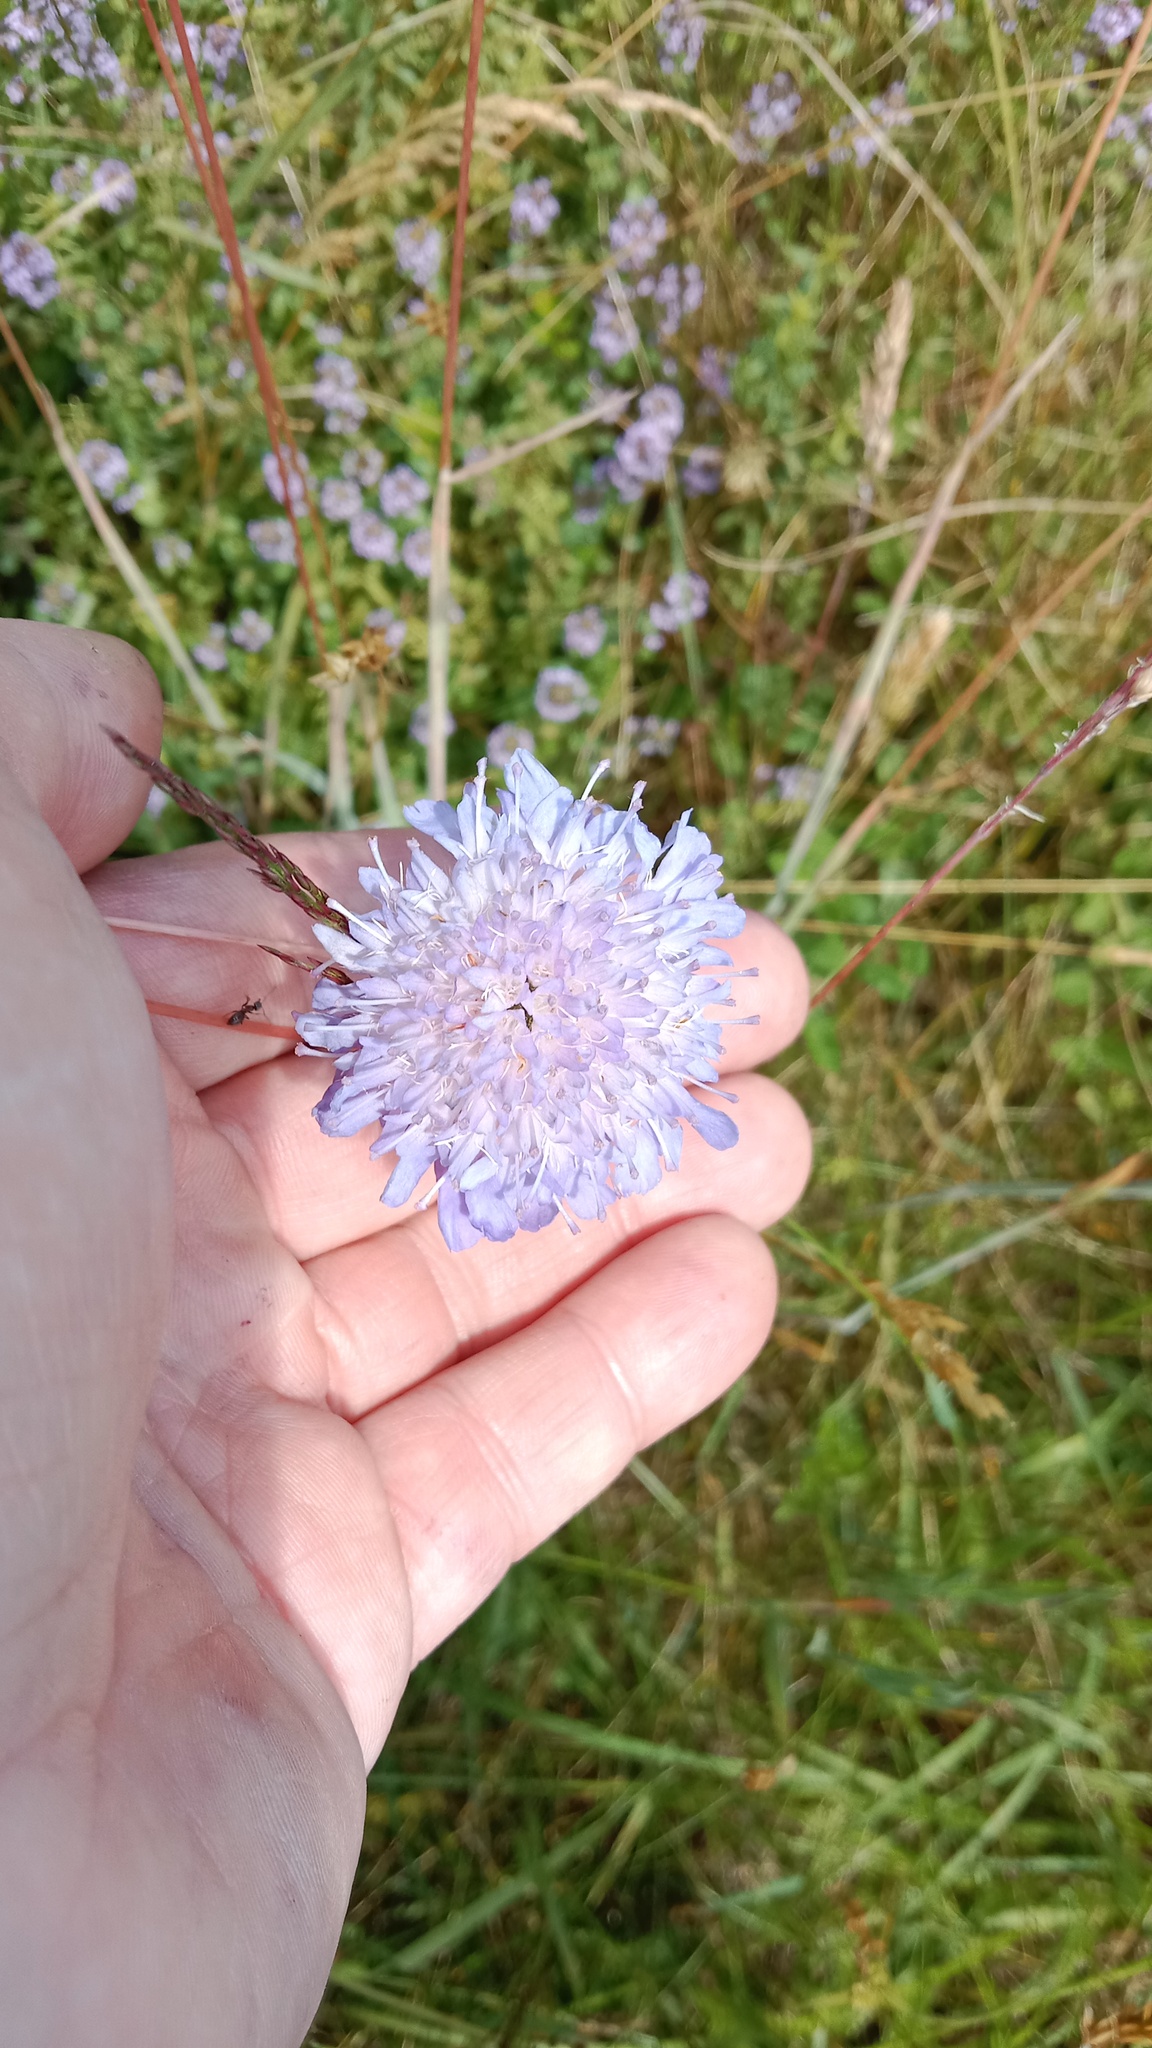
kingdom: Animalia
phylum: Arthropoda
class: Arachnida
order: Araneae
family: Thomisidae
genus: Misumena
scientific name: Misumena vatia
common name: Goldenrod crab spider
